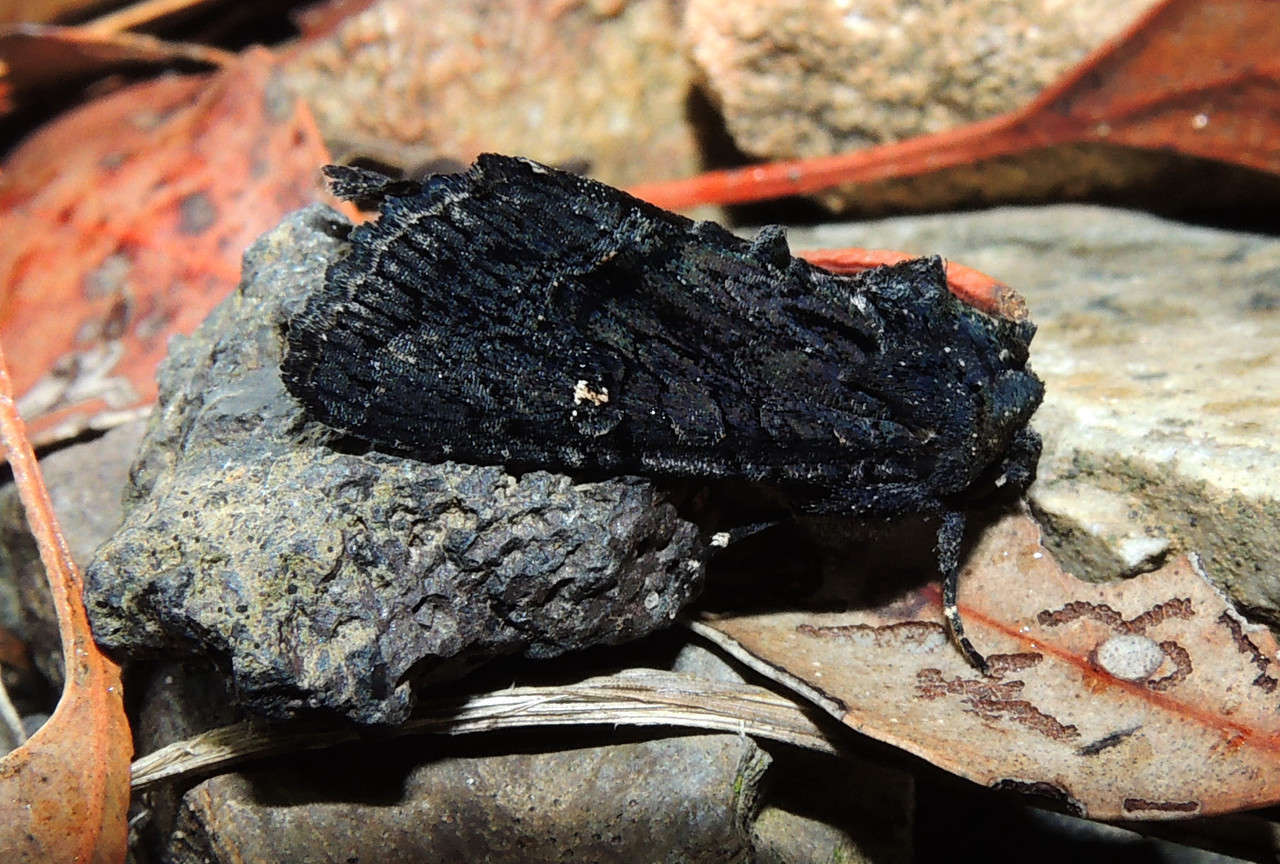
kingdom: Animalia
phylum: Arthropoda
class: Insecta
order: Lepidoptera
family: Noctuidae
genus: Neumichtis
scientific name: Neumichtis nigerrima
